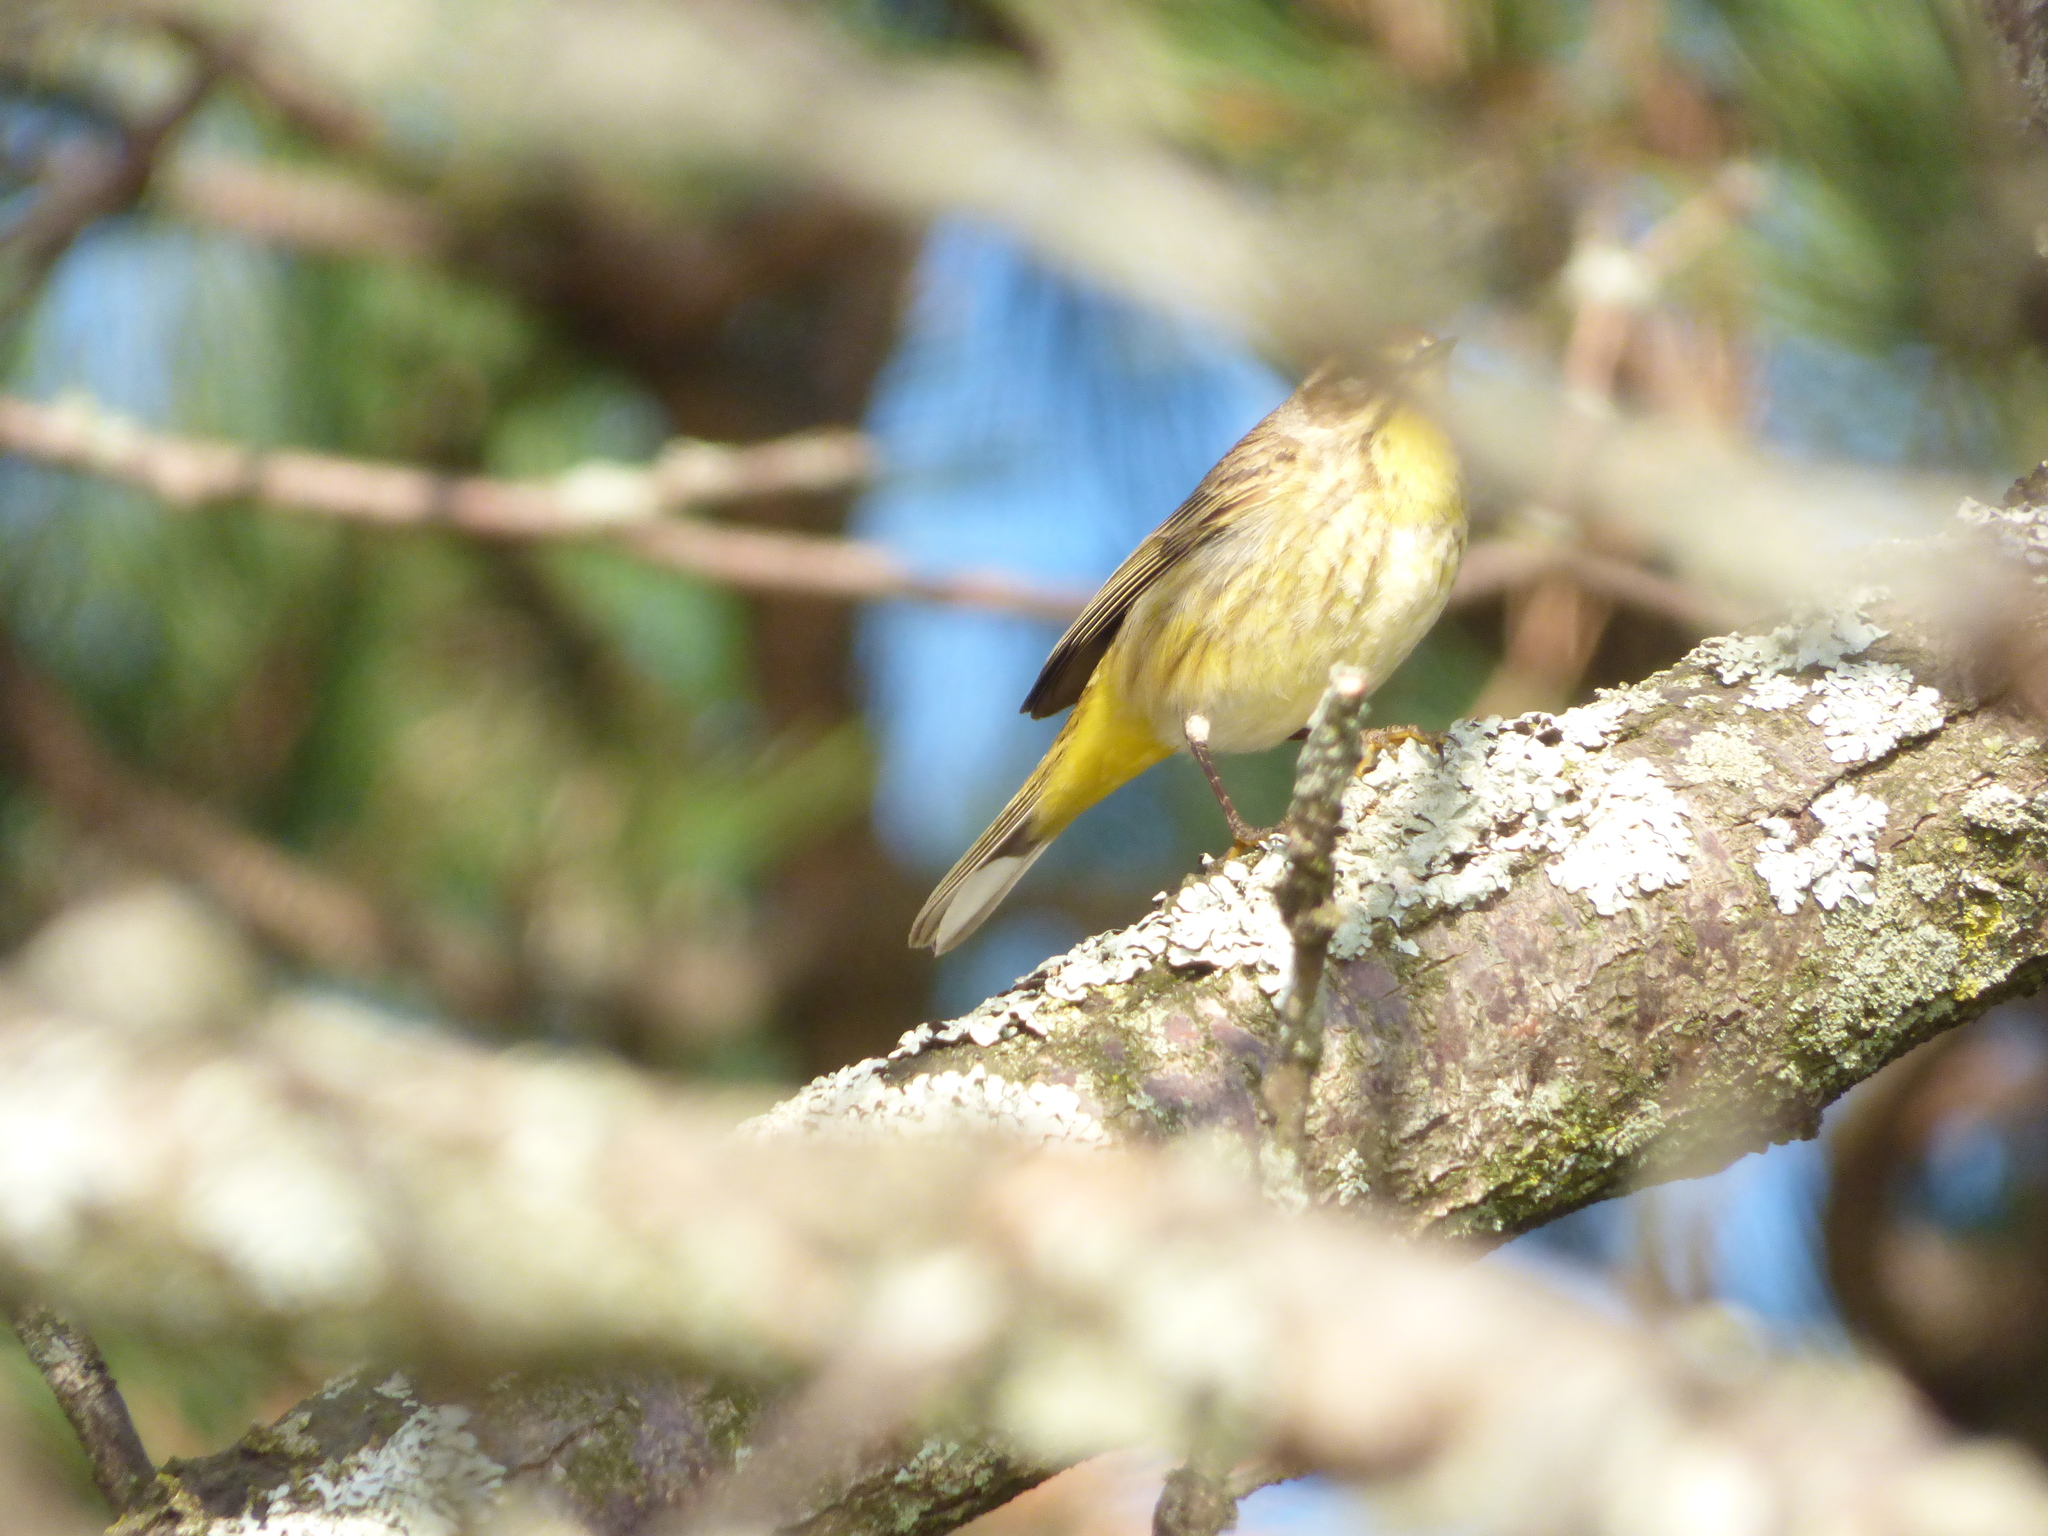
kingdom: Animalia
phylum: Chordata
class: Aves
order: Passeriformes
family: Parulidae
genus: Setophaga
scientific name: Setophaga palmarum
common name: Palm warbler
